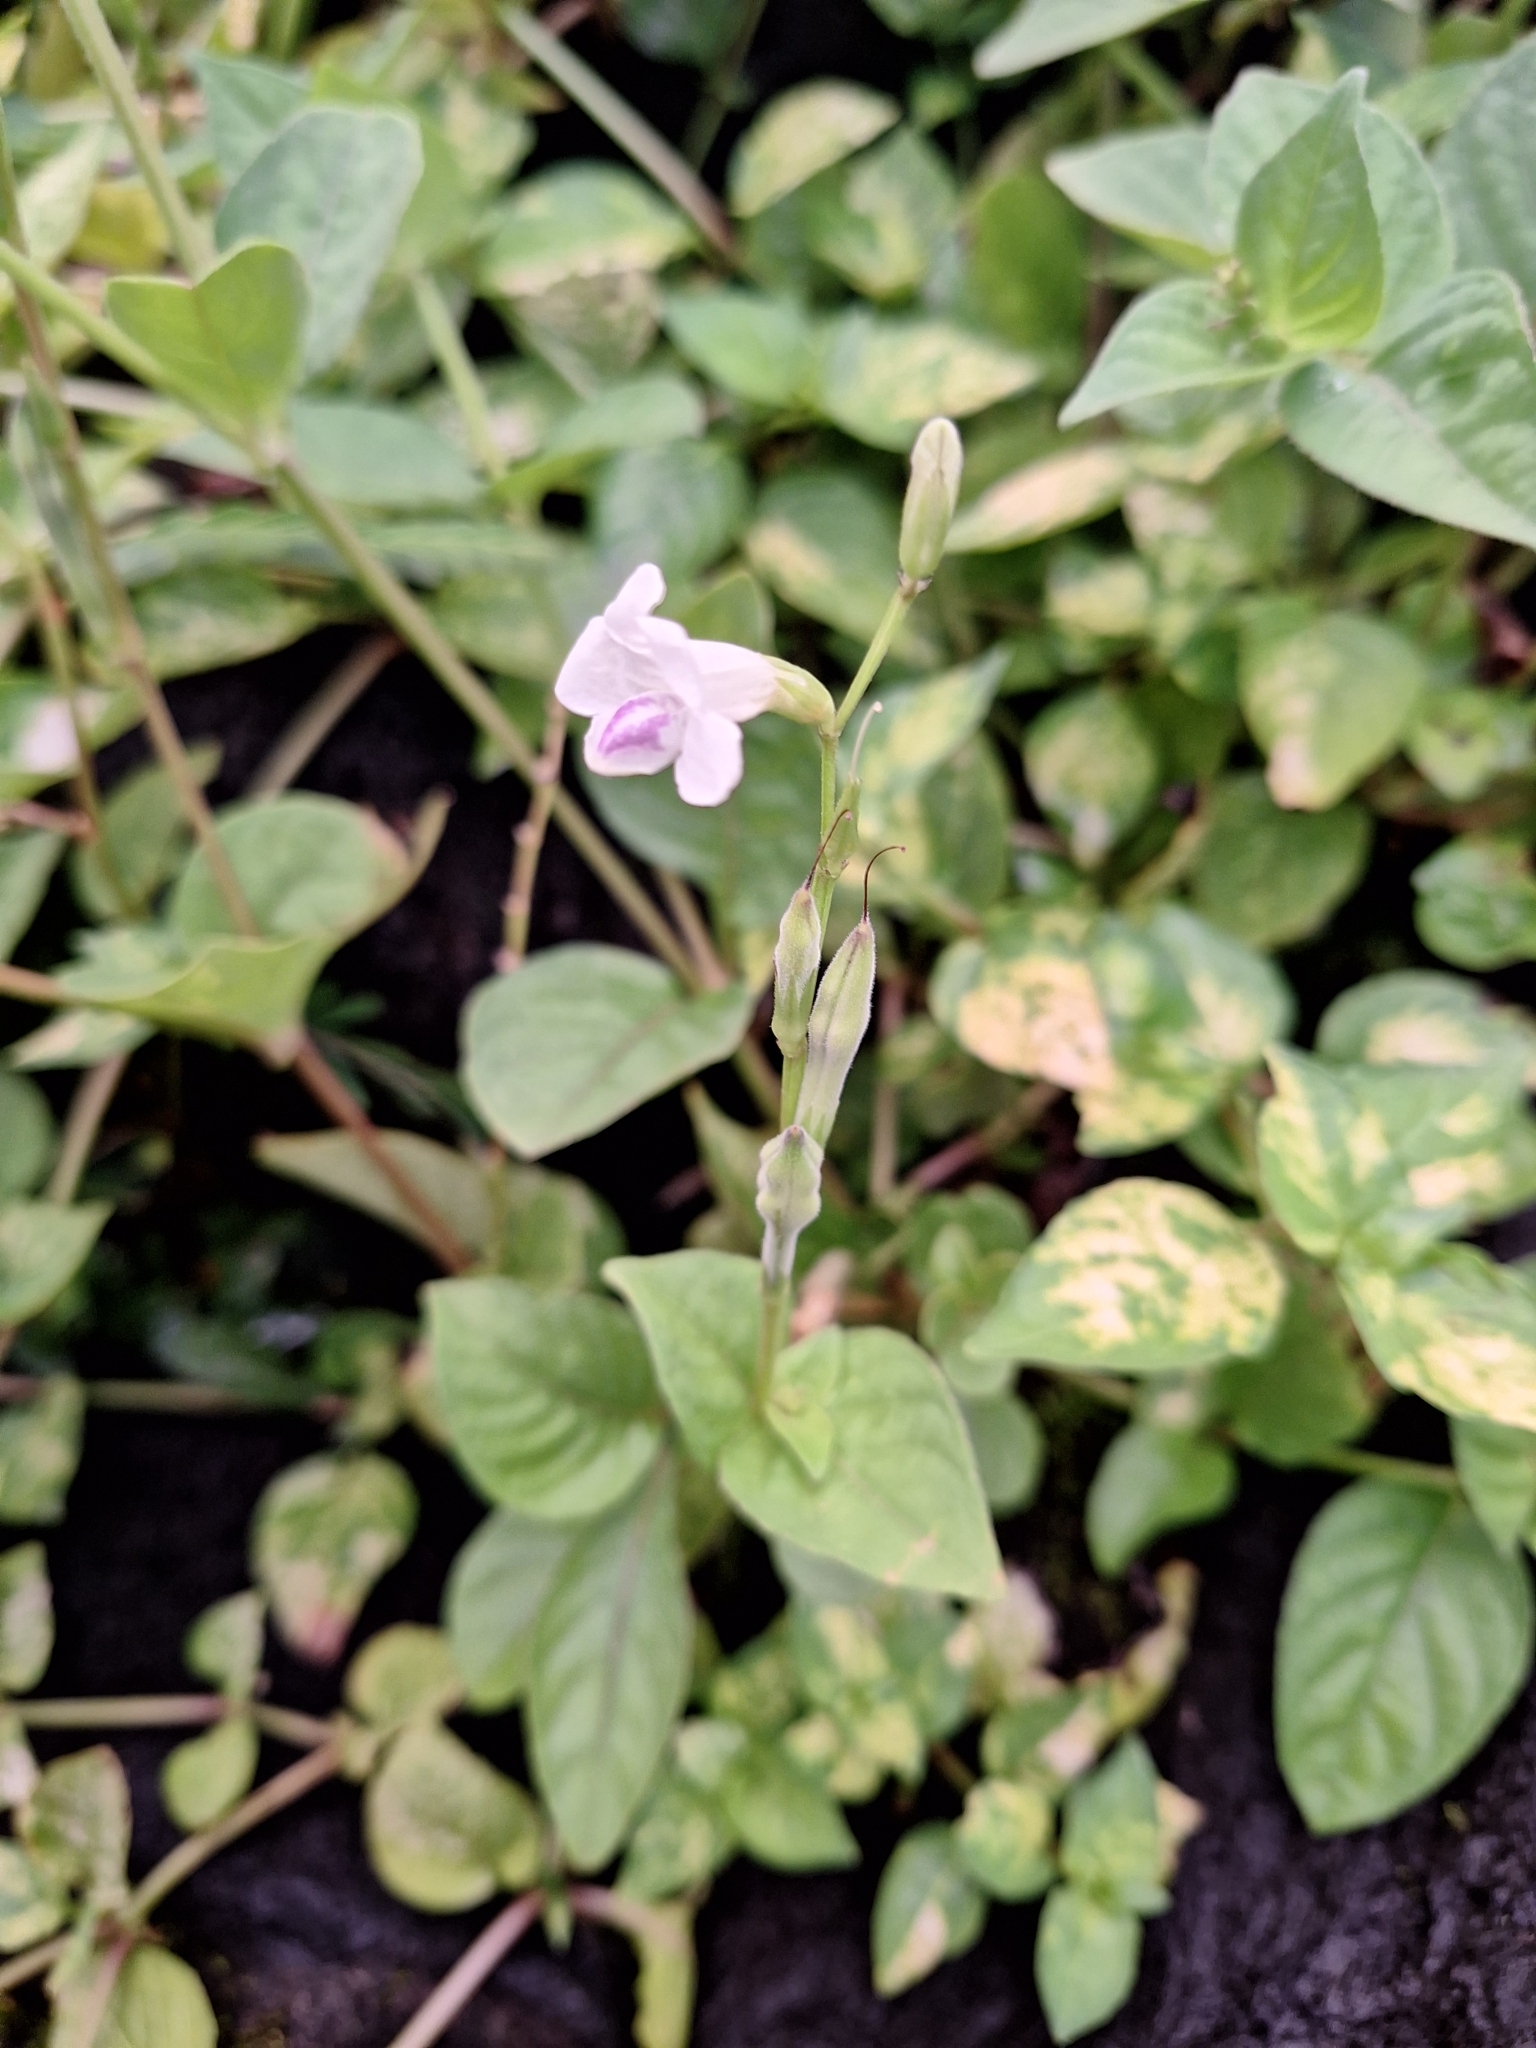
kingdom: Plantae
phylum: Tracheophyta
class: Magnoliopsida
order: Lamiales
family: Acanthaceae
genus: Asystasia
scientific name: Asystasia intrusa
